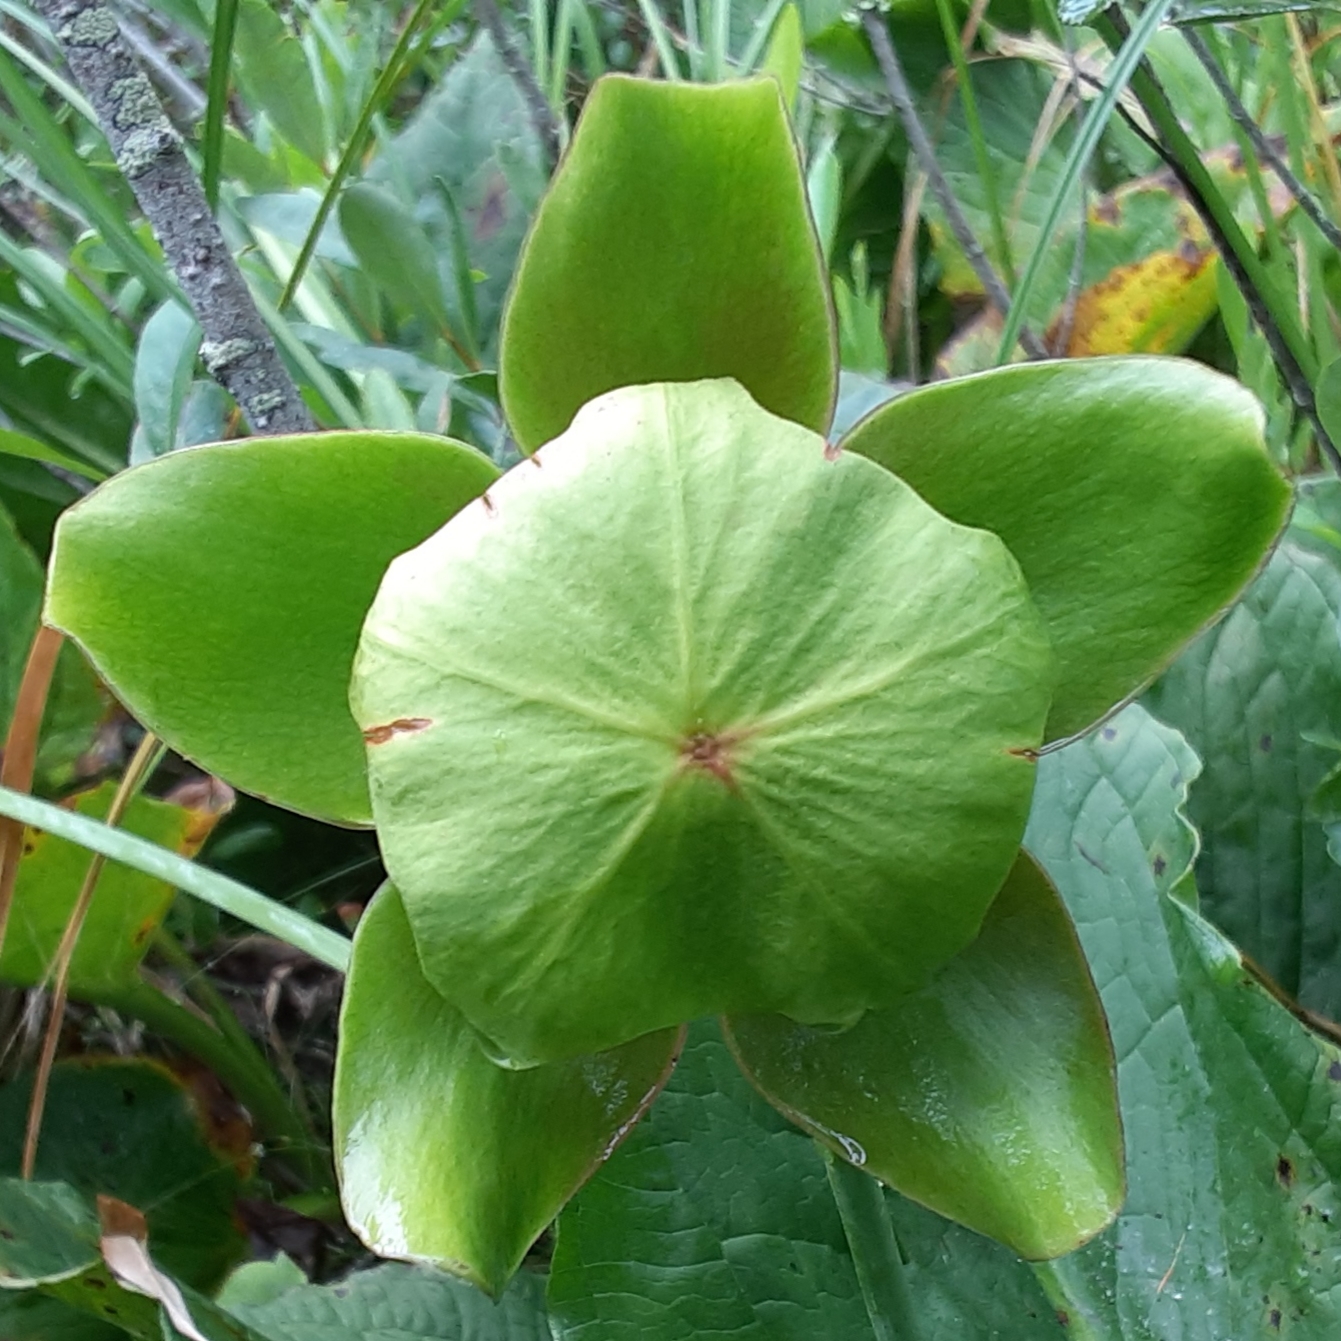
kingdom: Plantae
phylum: Tracheophyta
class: Magnoliopsida
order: Ericales
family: Sarraceniaceae
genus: Sarracenia
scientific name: Sarracenia purpurea
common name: Pitcherplant
